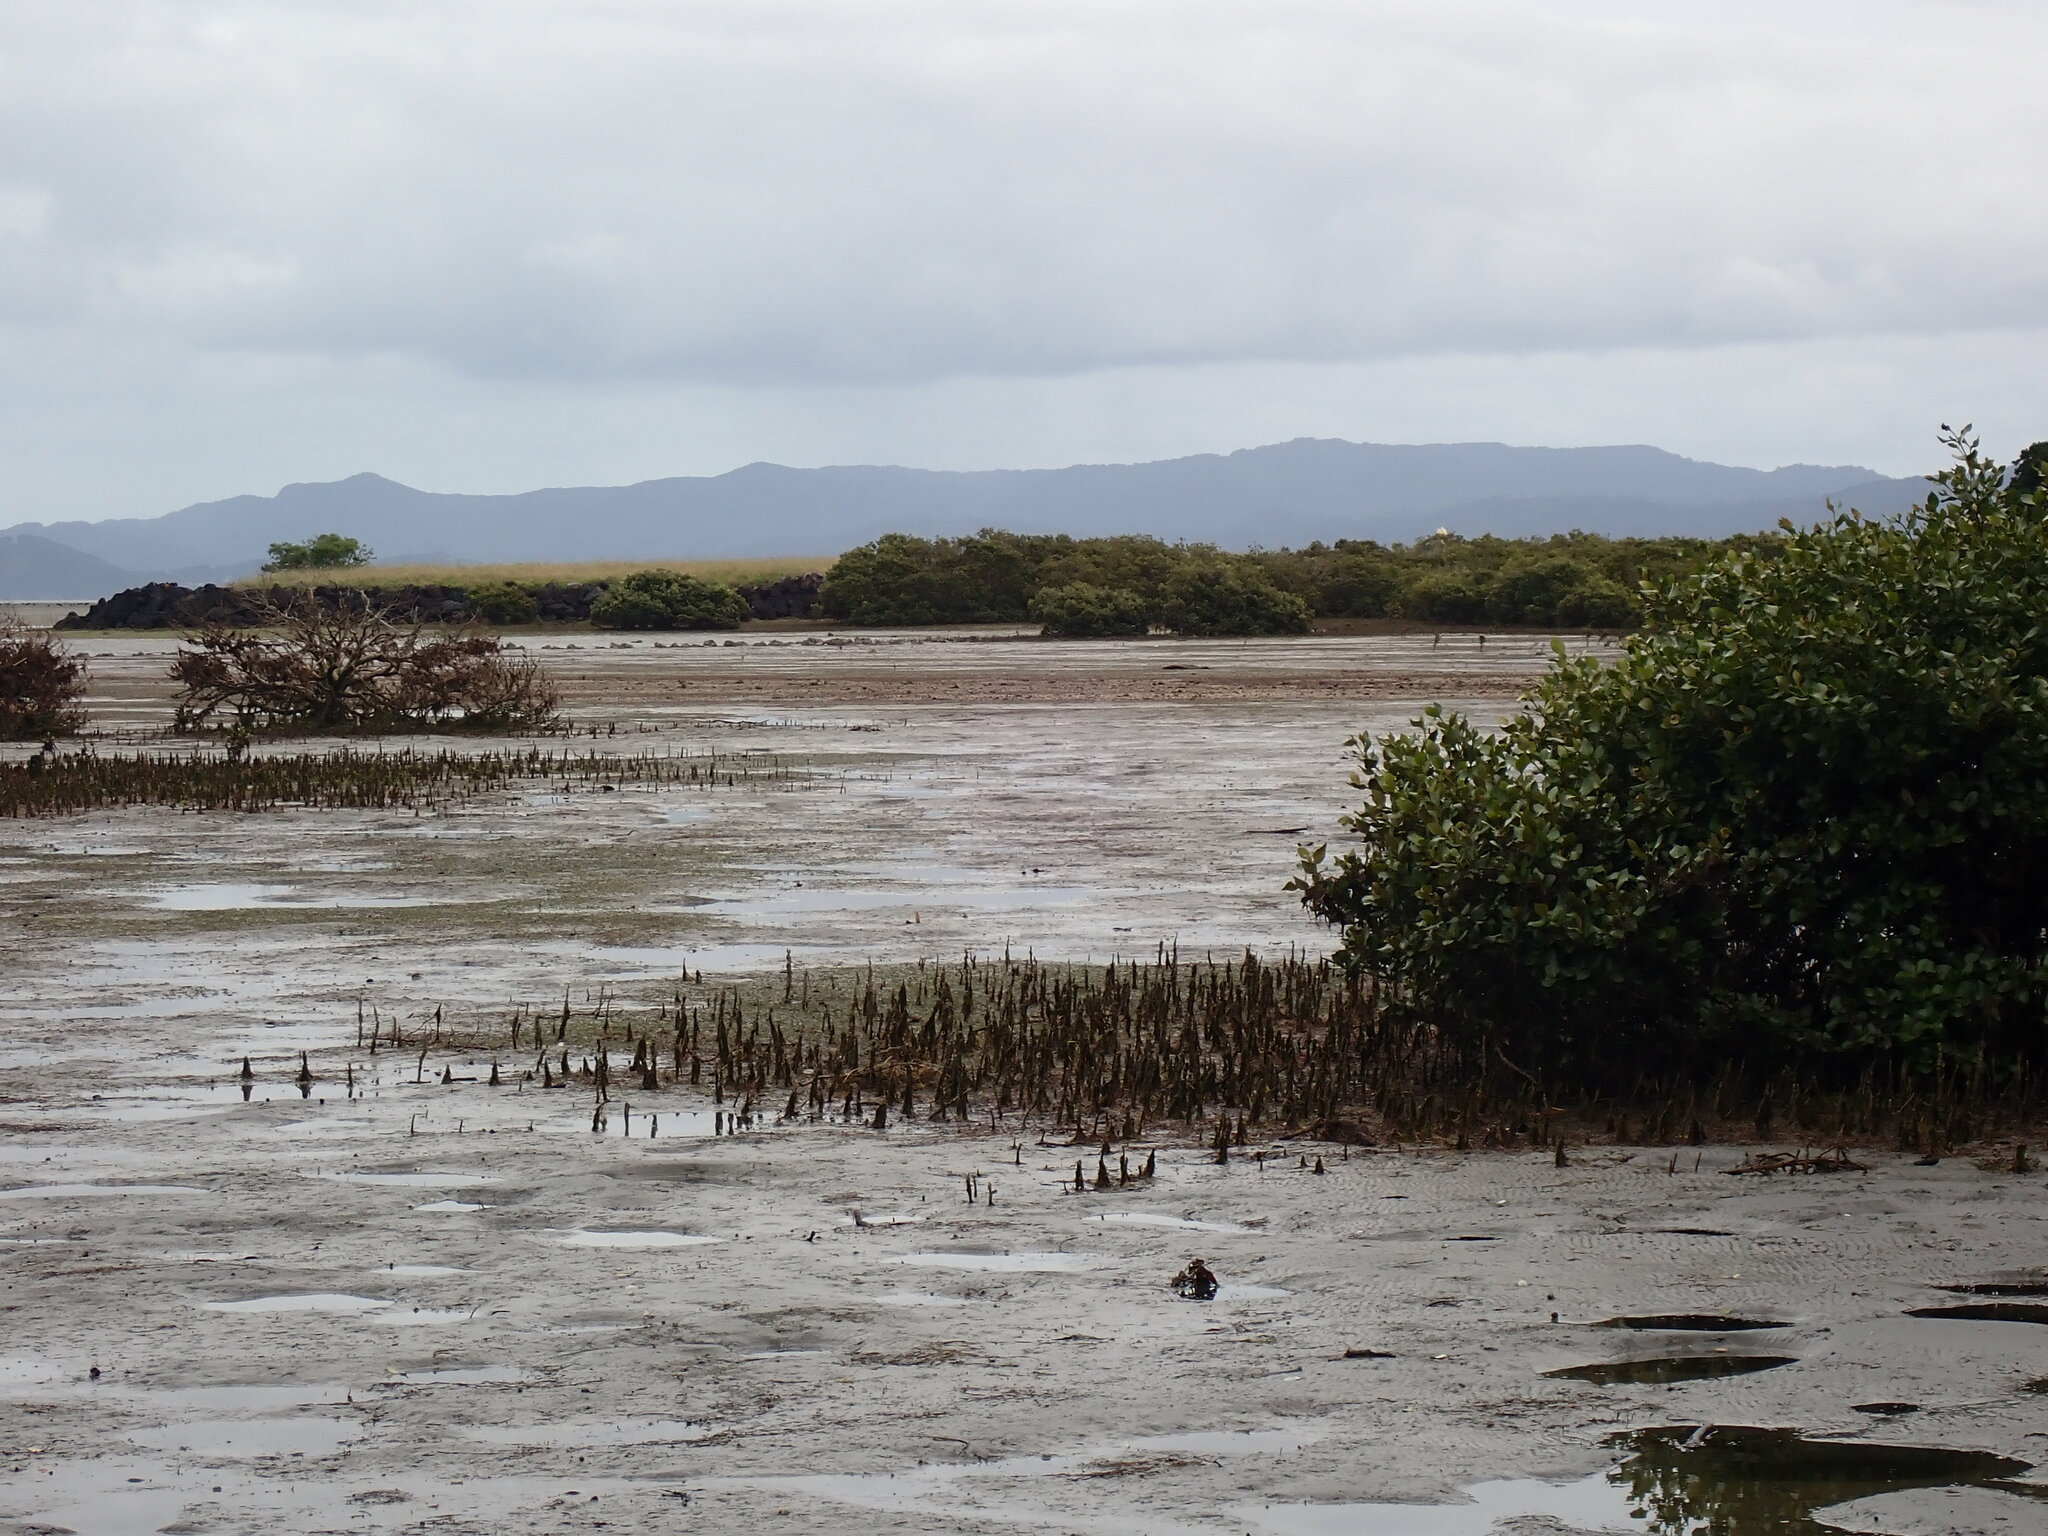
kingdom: Plantae
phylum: Tracheophyta
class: Magnoliopsida
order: Lamiales
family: Acanthaceae
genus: Avicennia
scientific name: Avicennia marina
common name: Gray mangrove
